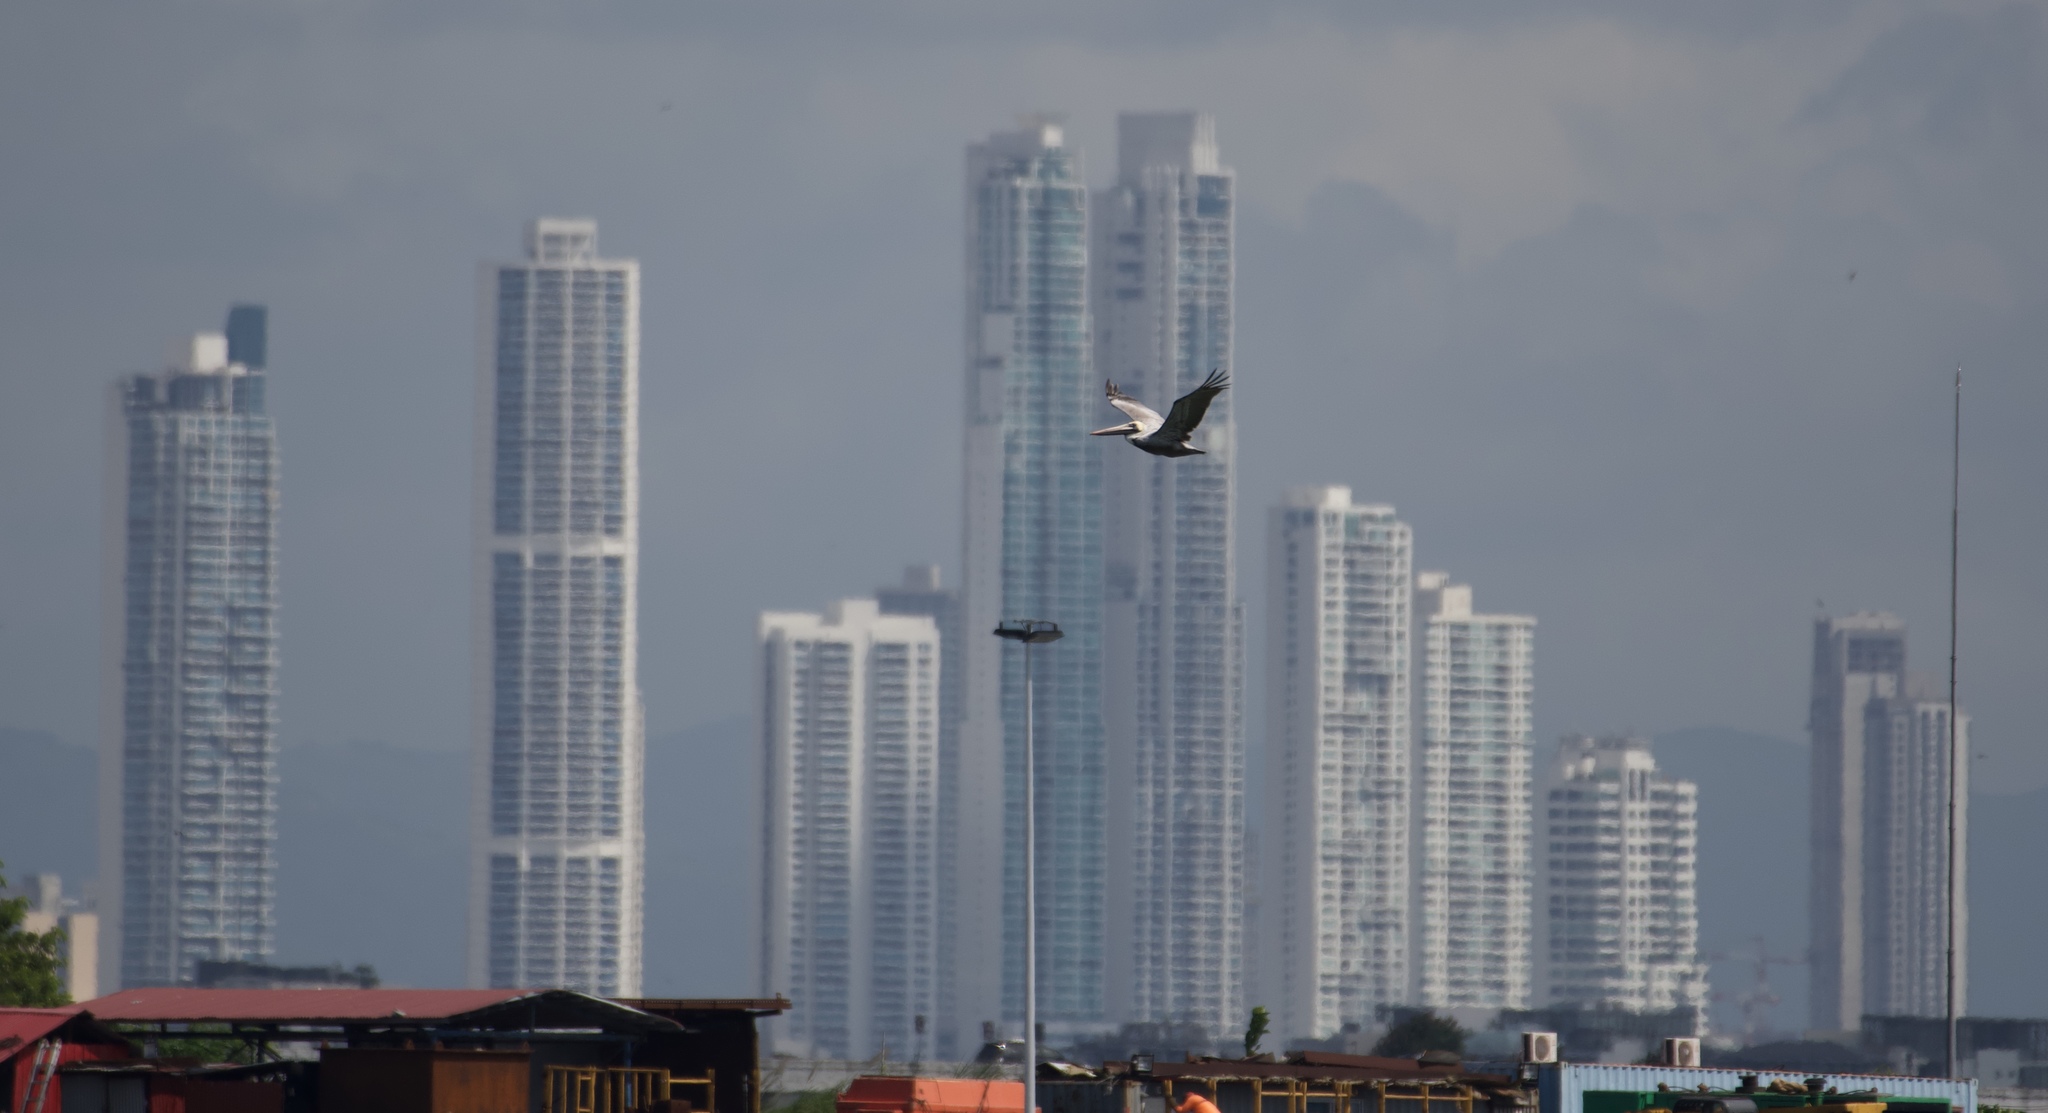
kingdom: Animalia
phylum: Chordata
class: Aves
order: Pelecaniformes
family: Pelecanidae
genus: Pelecanus
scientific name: Pelecanus occidentalis
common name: Brown pelican
